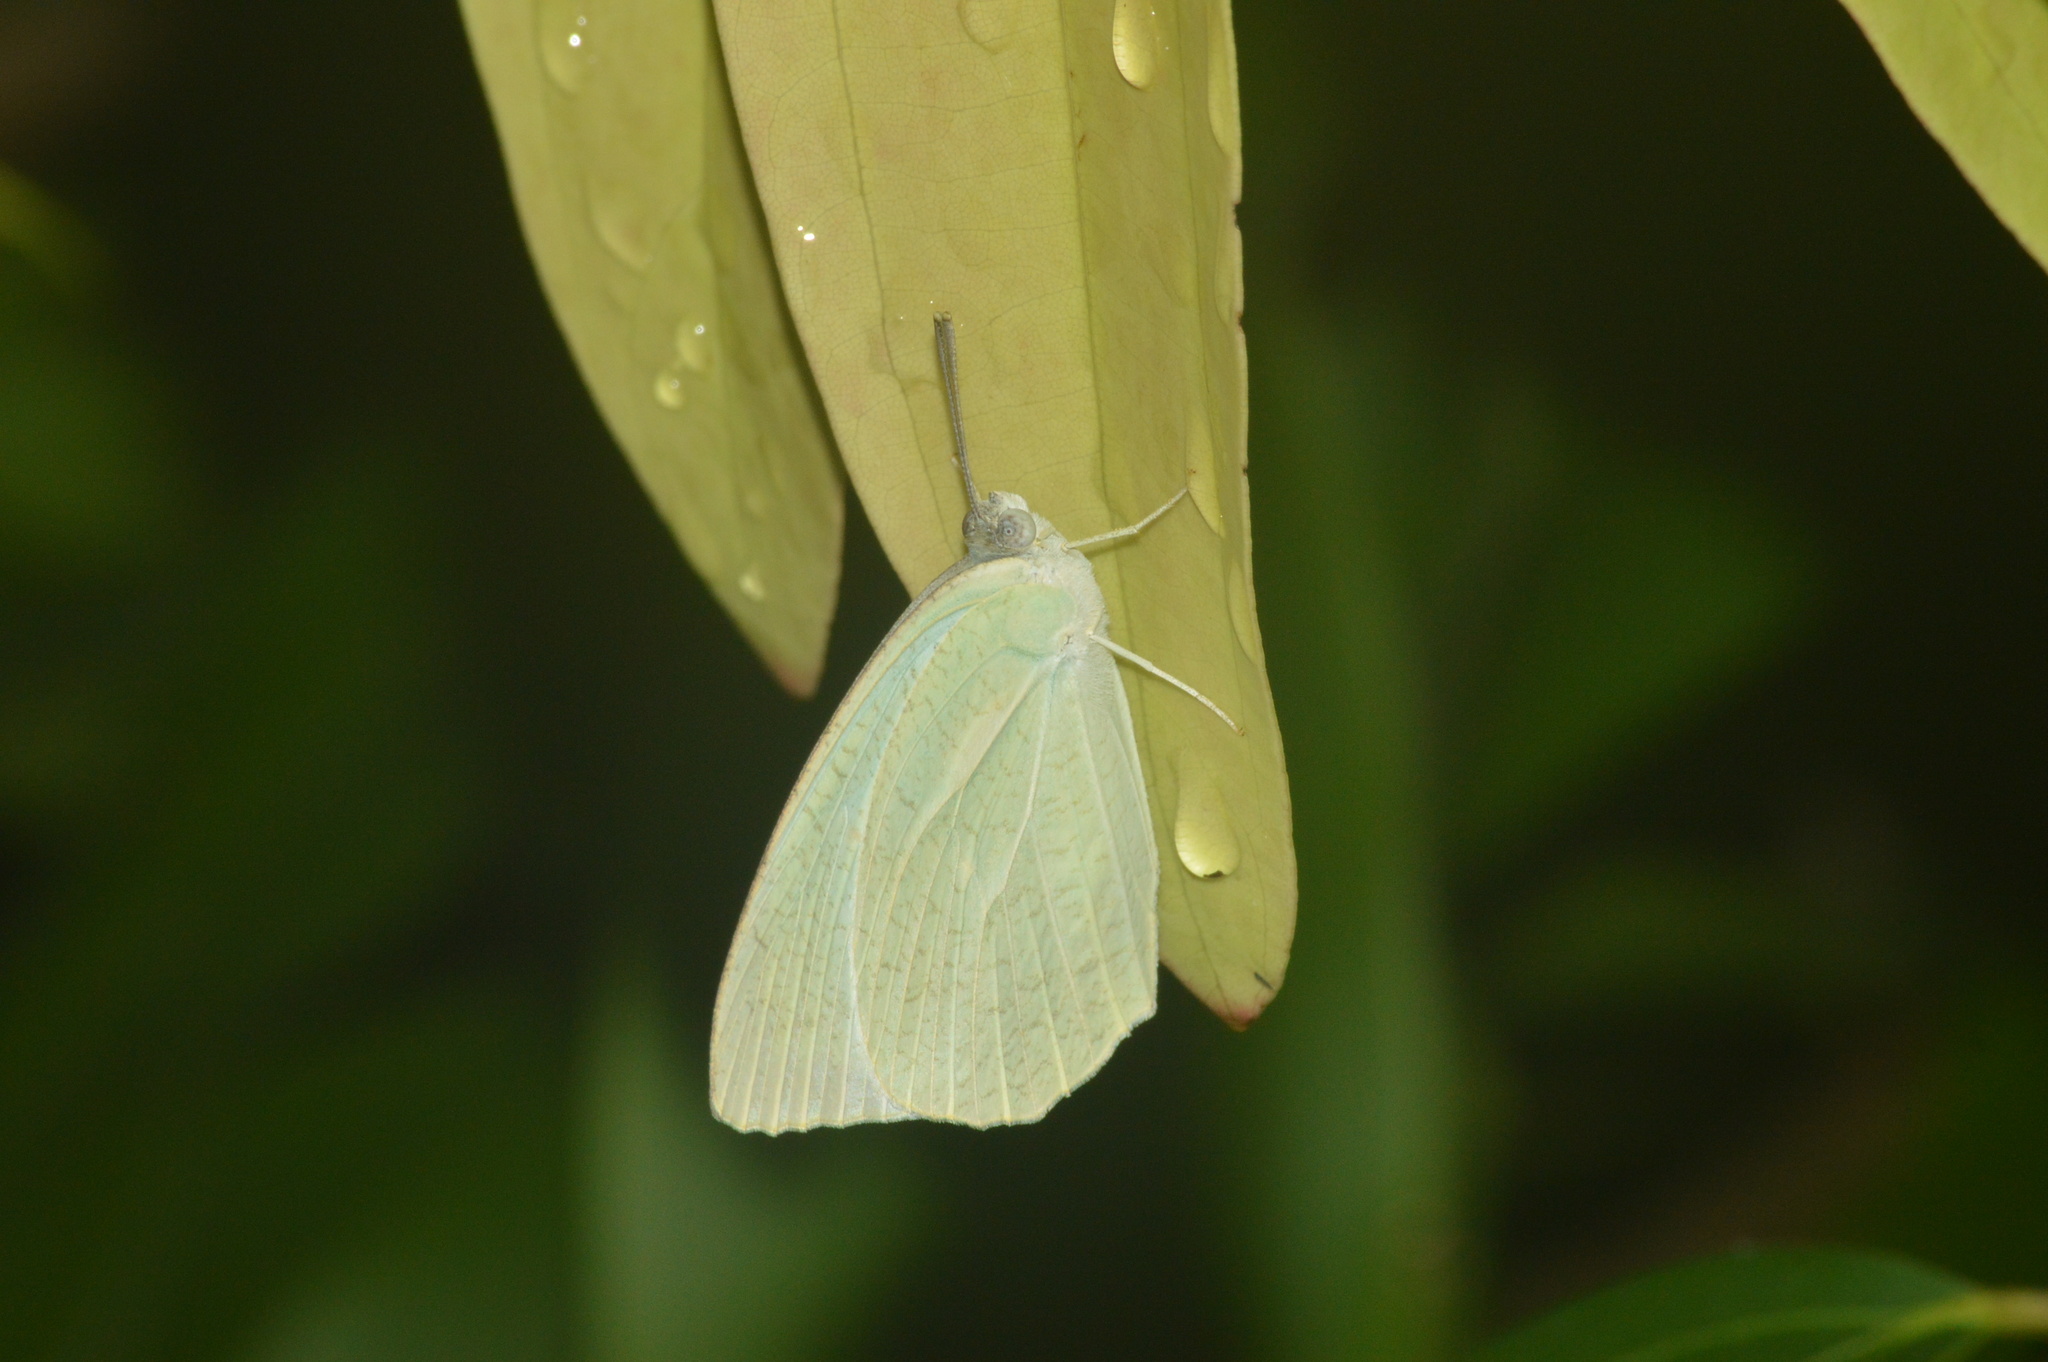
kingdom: Animalia
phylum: Arthropoda
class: Insecta
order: Lepidoptera
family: Pieridae
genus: Catopsilia
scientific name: Catopsilia pyranthe
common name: Mottled emigrant
